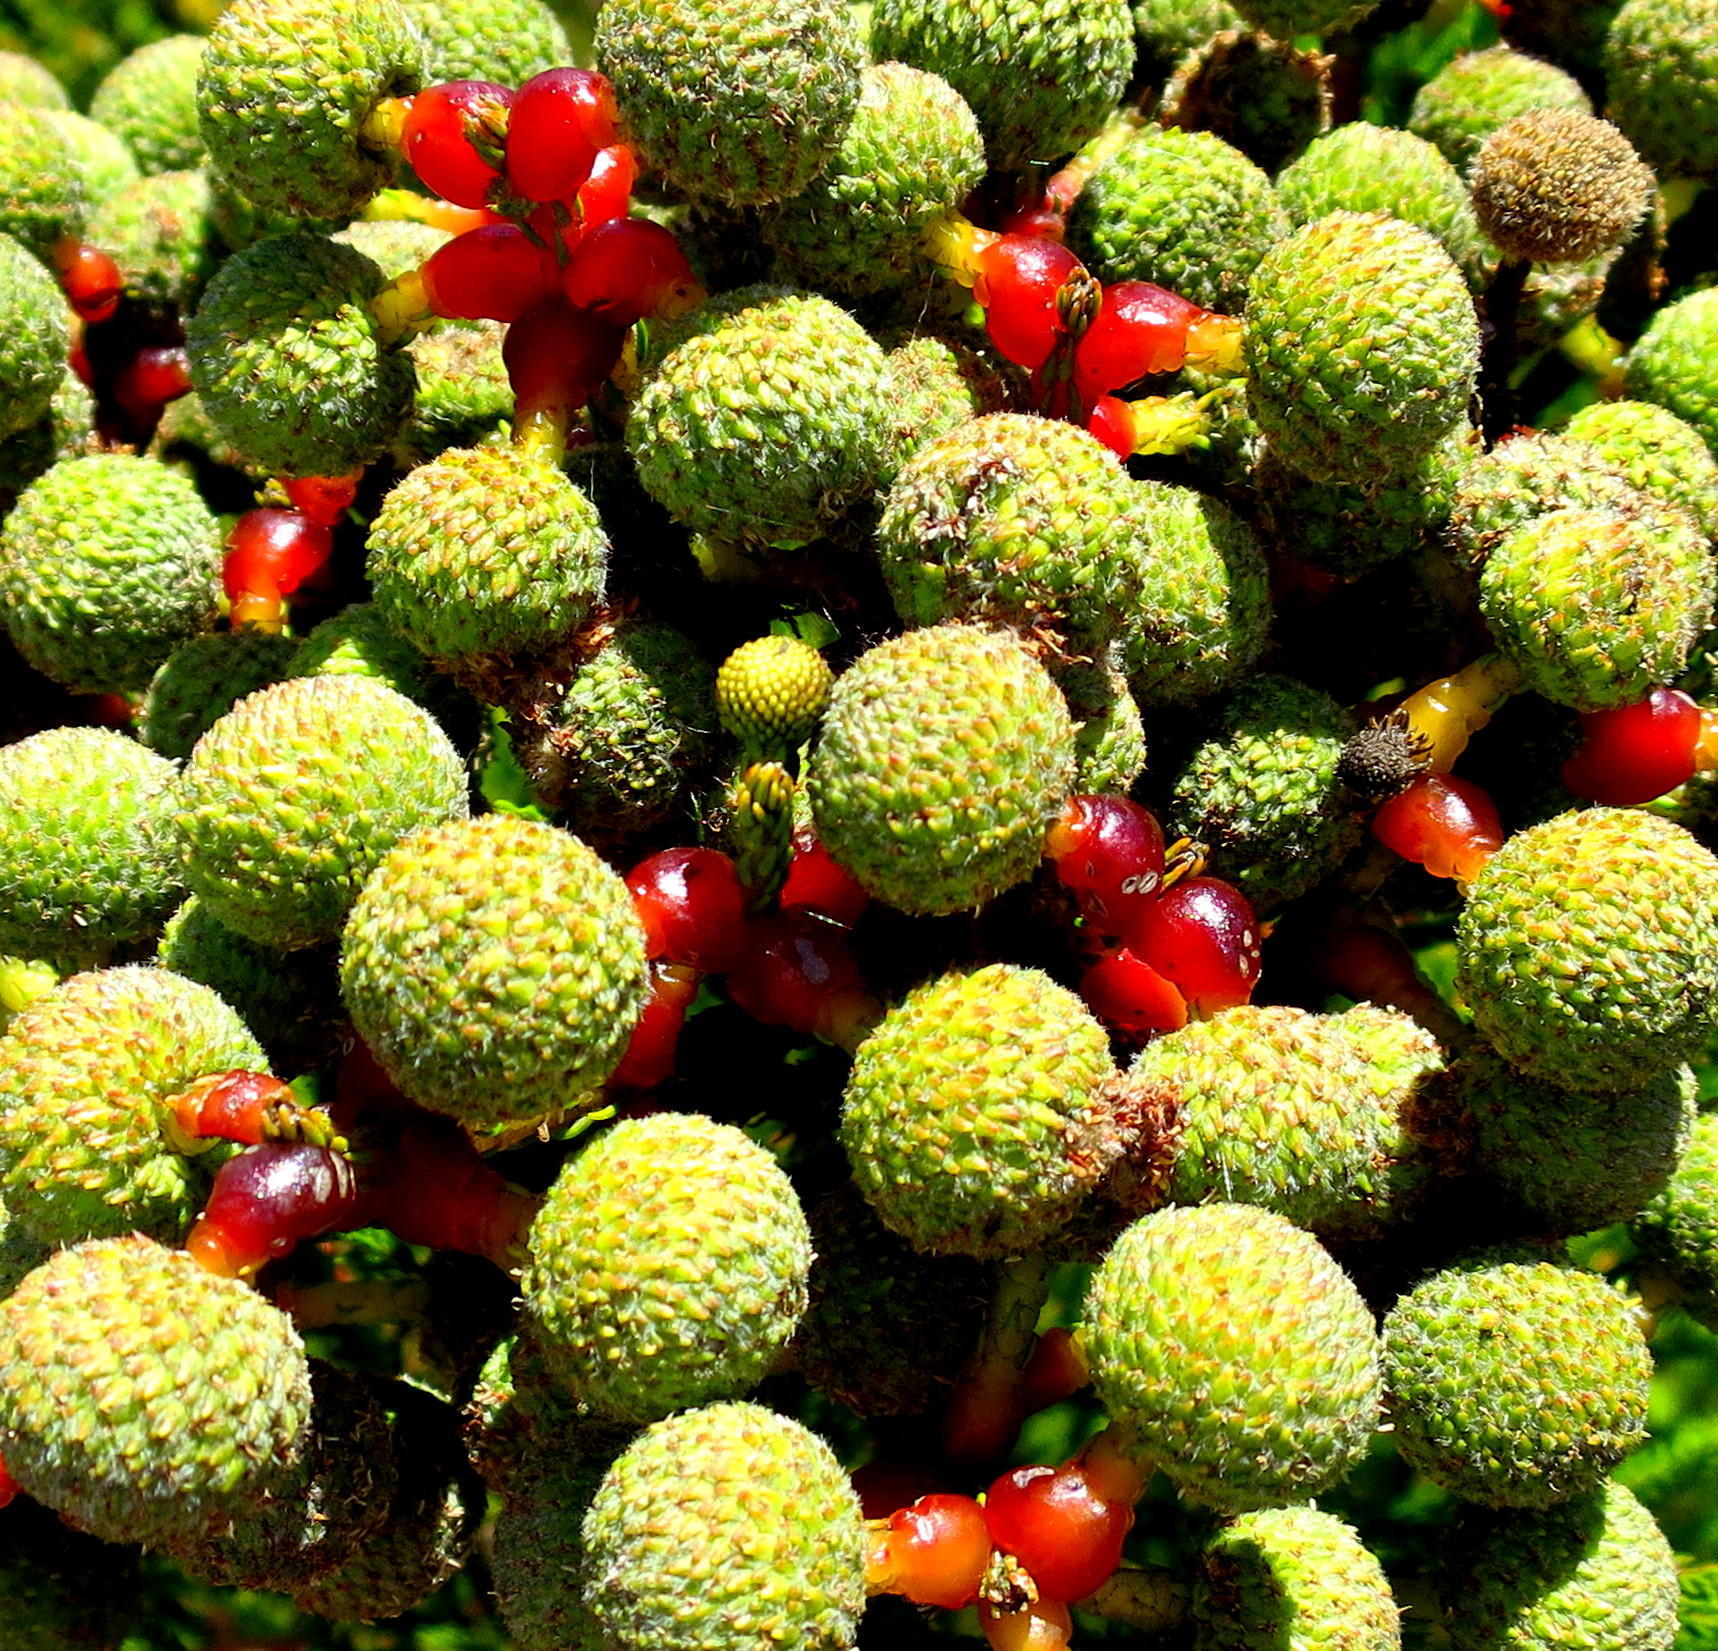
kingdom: Plantae
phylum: Tracheophyta
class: Magnoliopsida
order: Bruniales
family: Bruniaceae
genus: Berzelia
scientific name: Berzelia intermedia
